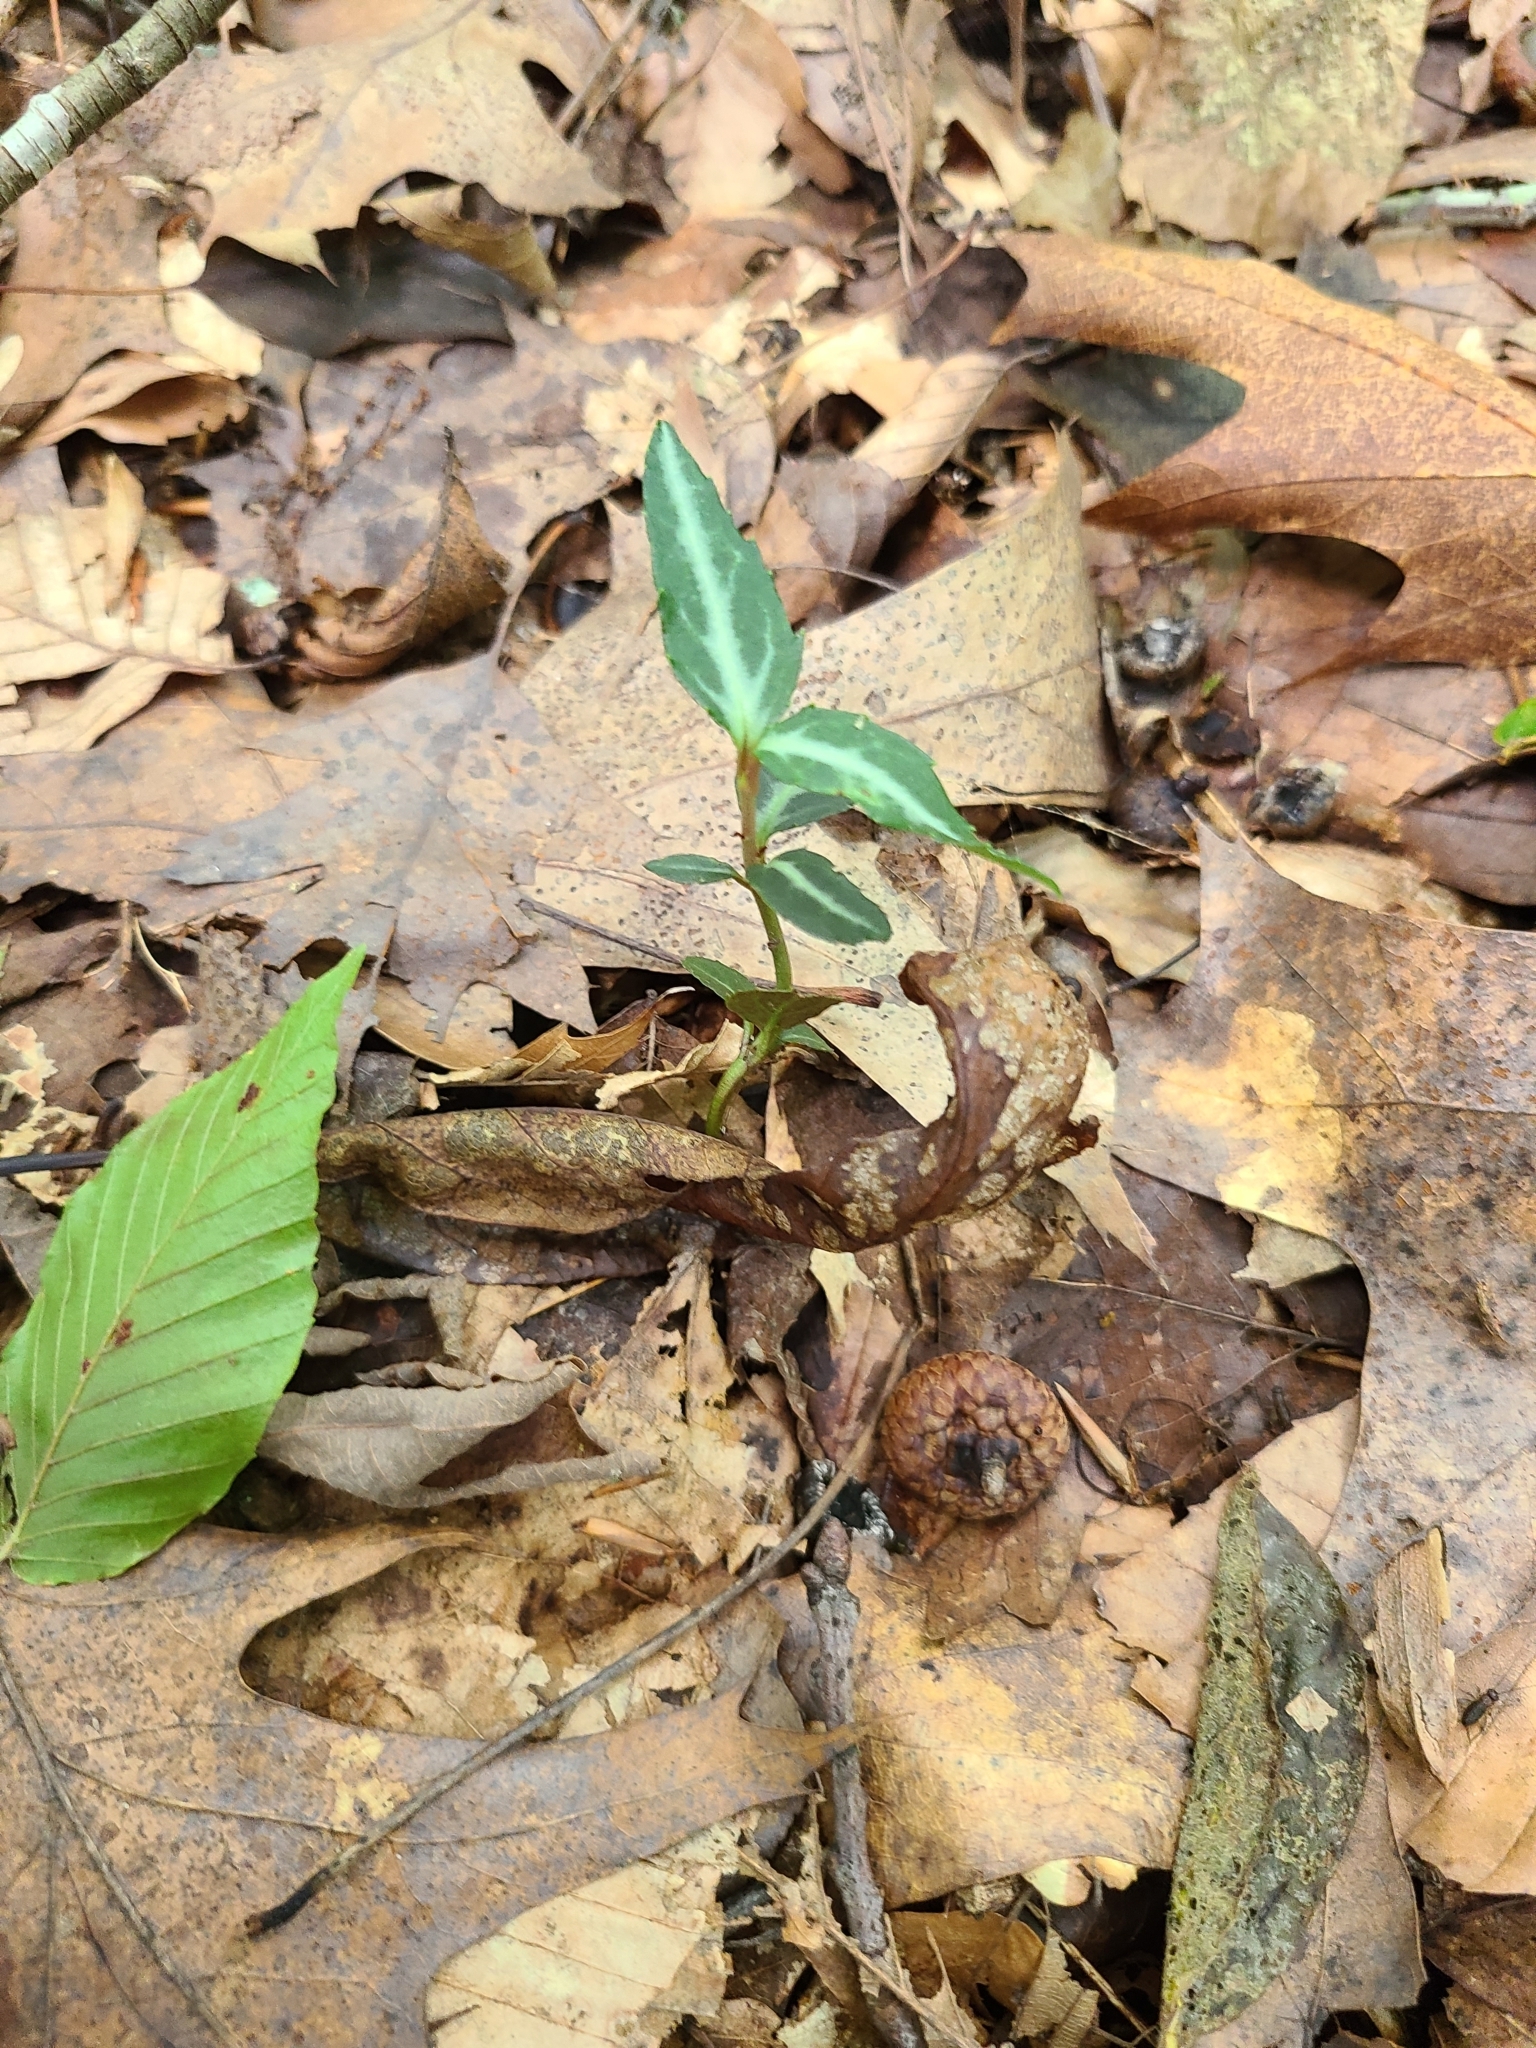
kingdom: Plantae
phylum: Tracheophyta
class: Magnoliopsida
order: Ericales
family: Ericaceae
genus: Chimaphila
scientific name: Chimaphila maculata
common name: Spotted pipsissewa
